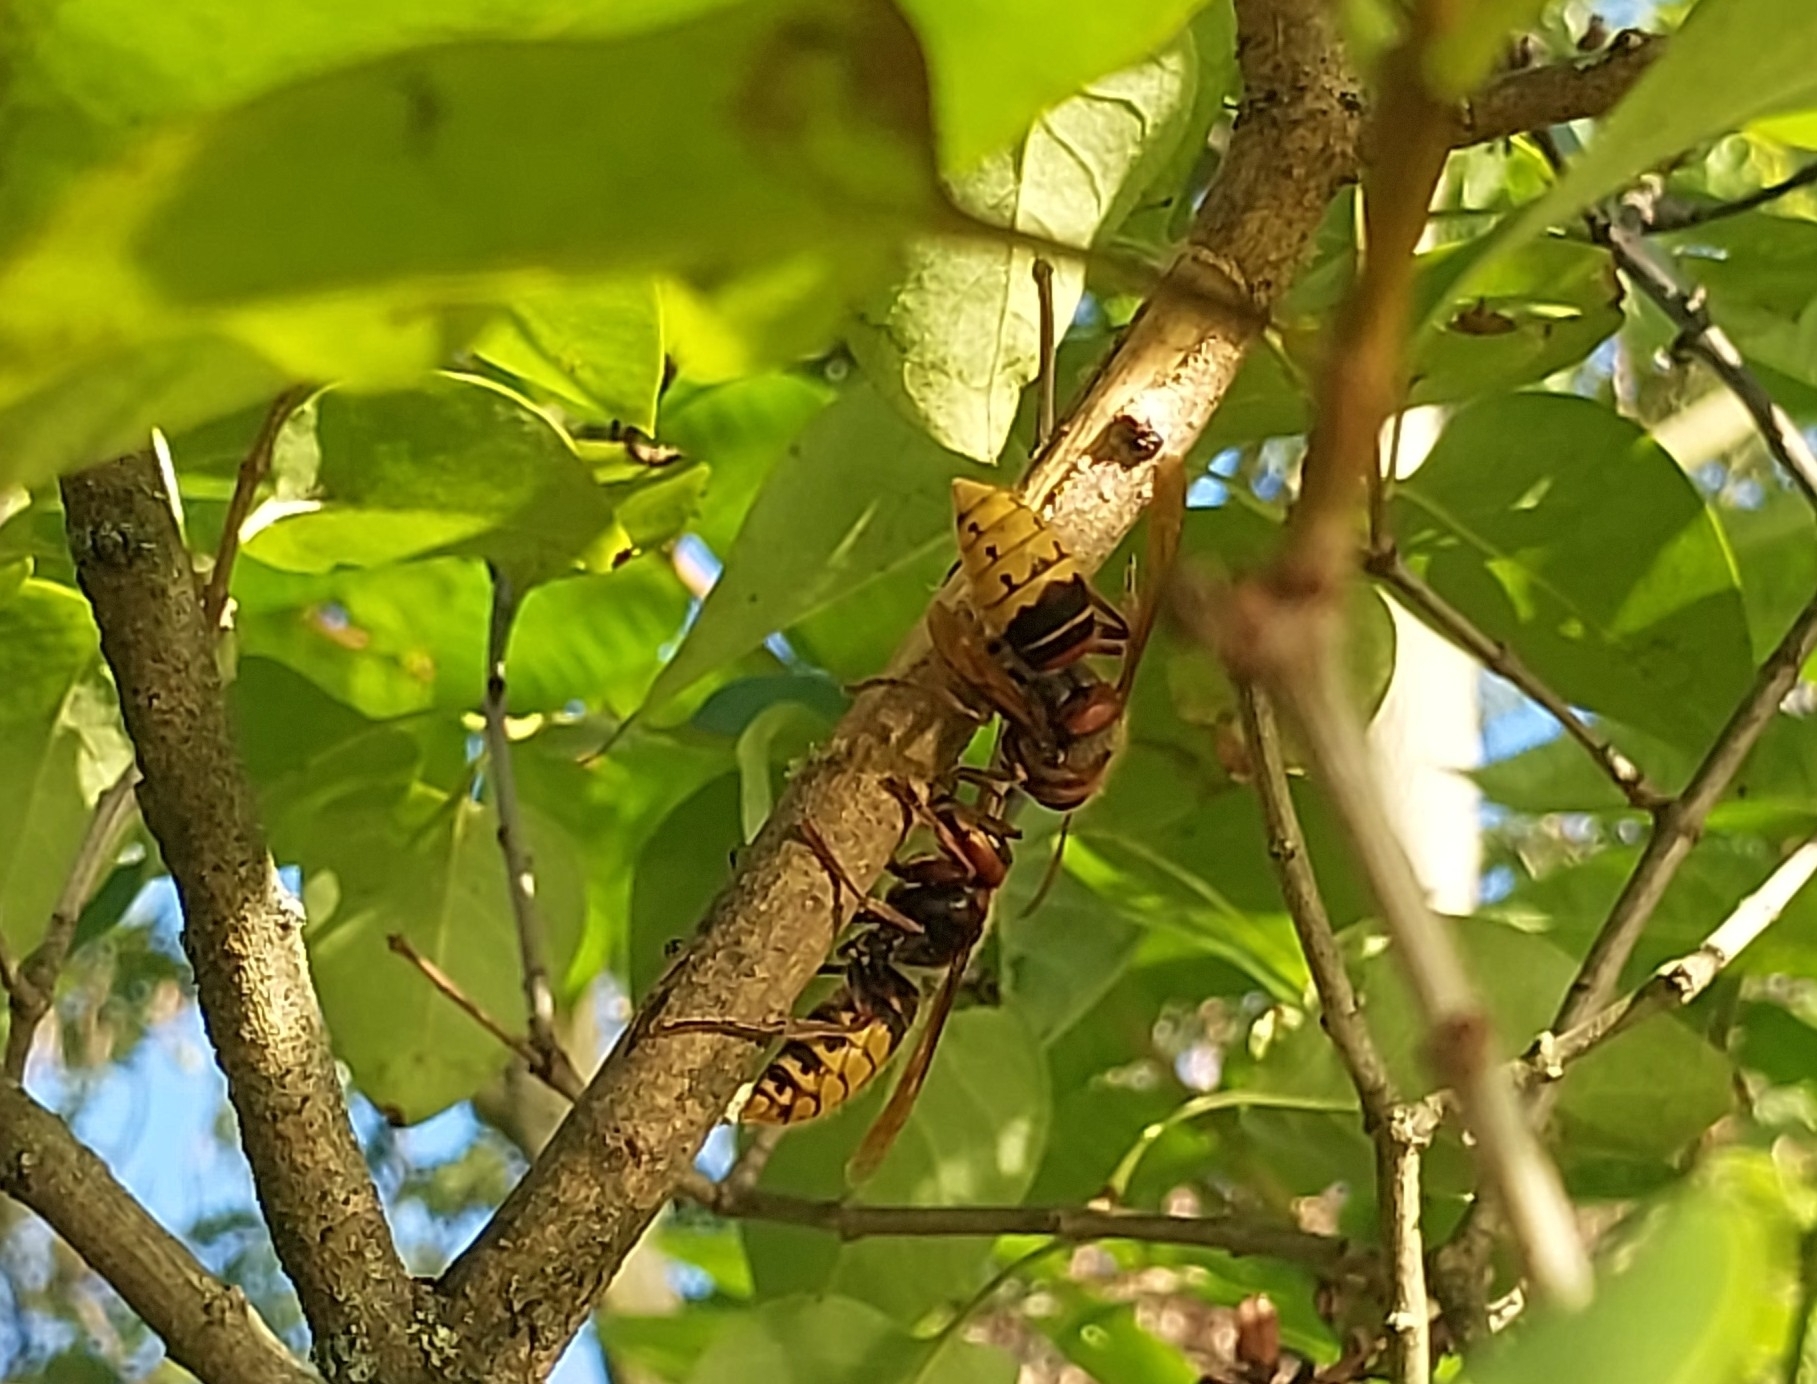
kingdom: Animalia
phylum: Arthropoda
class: Insecta
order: Hymenoptera
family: Vespidae
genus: Vespa
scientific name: Vespa crabro
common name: Hornet
